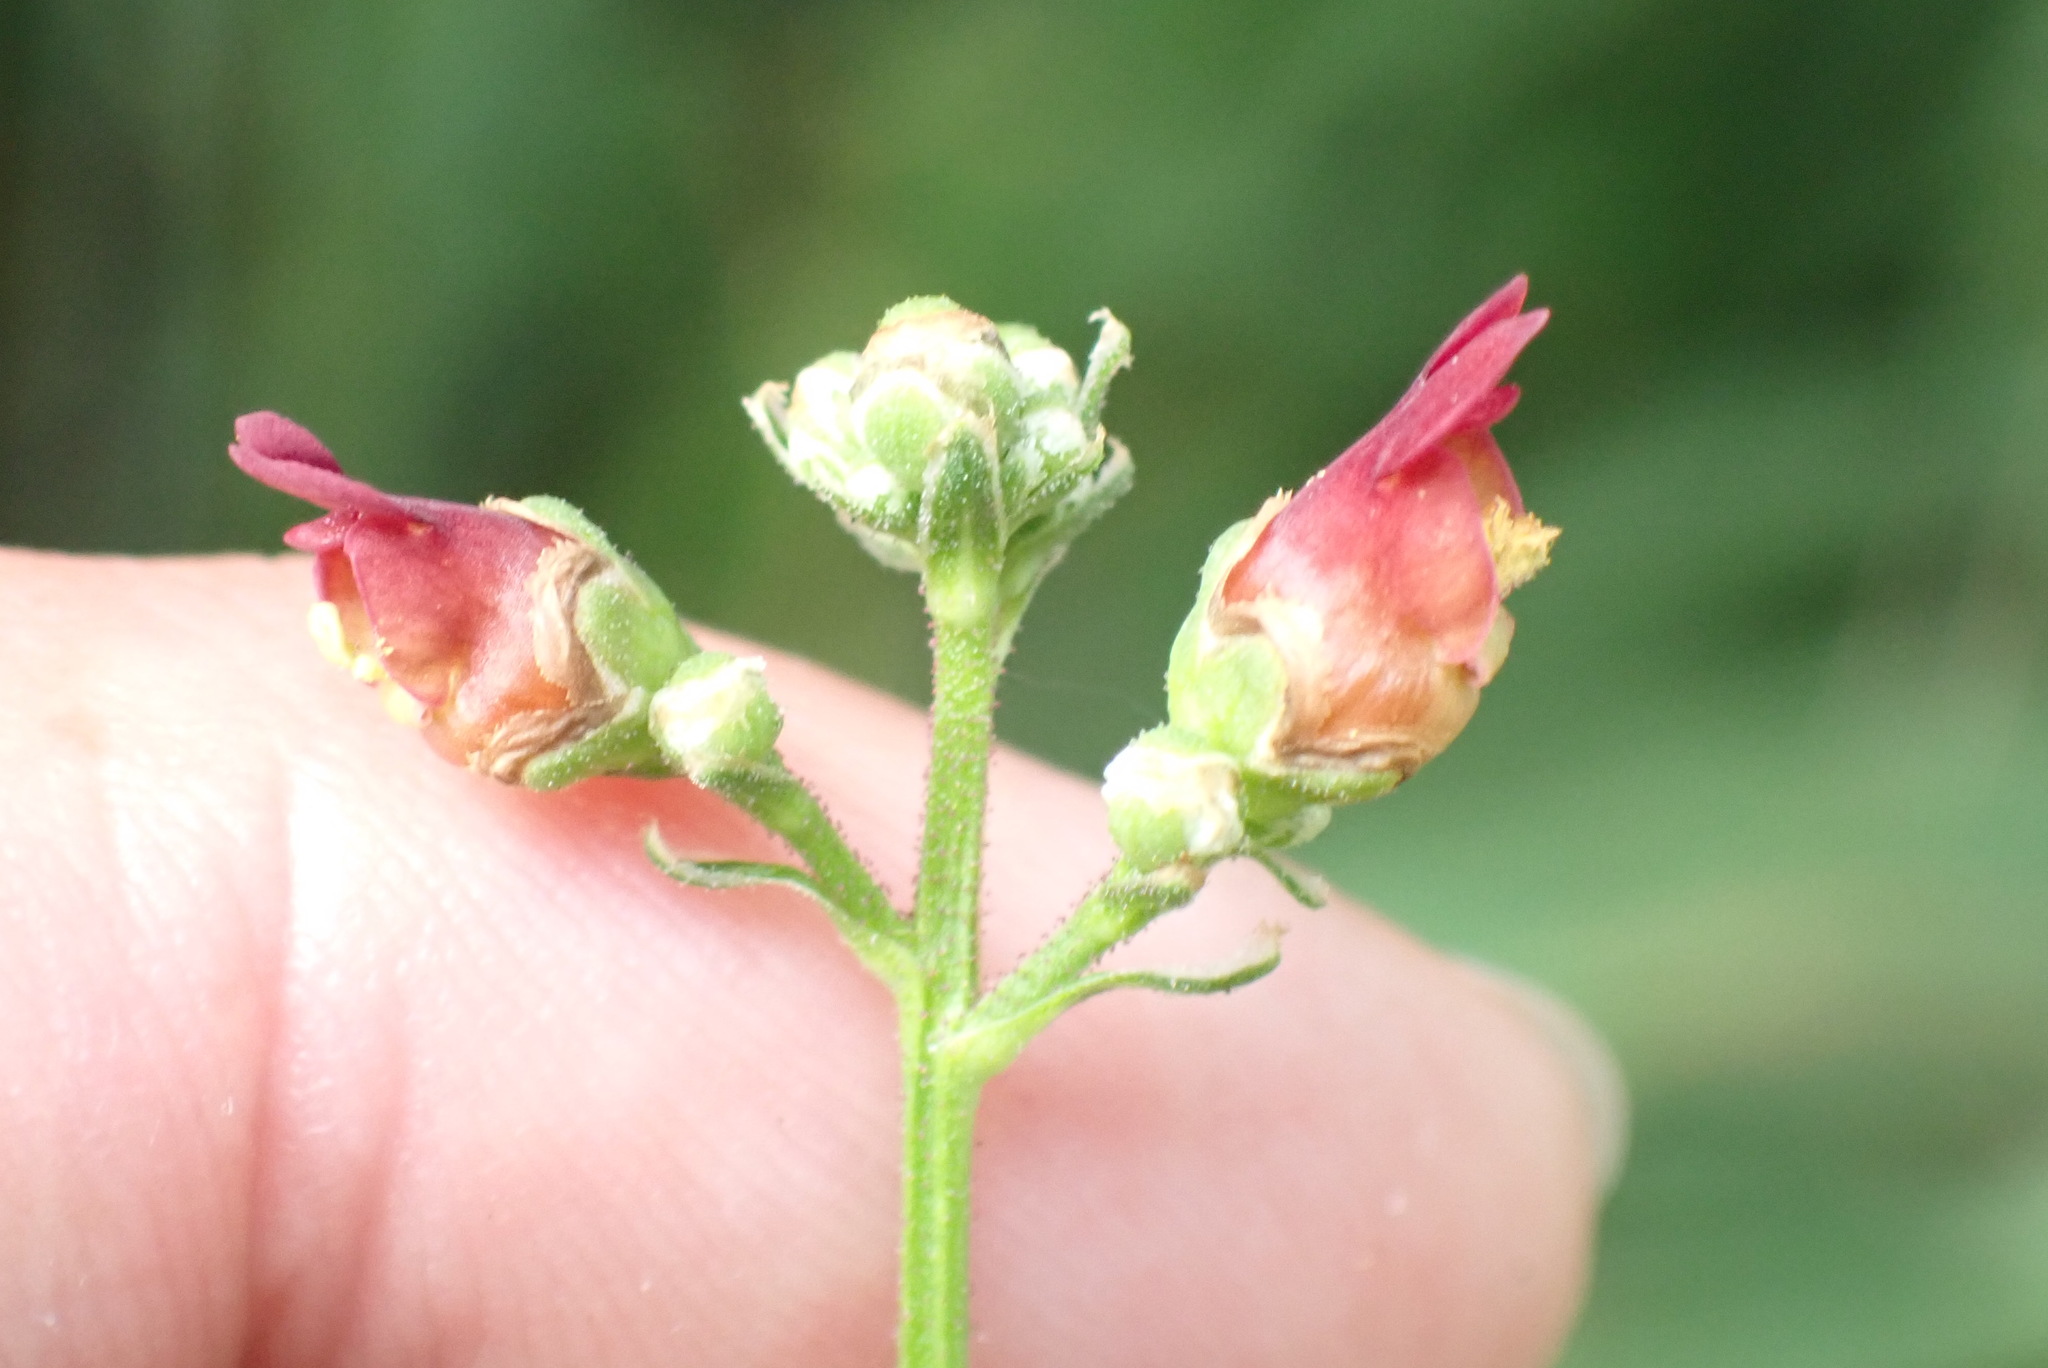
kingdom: Plantae
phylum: Tracheophyta
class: Magnoliopsida
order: Lamiales
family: Scrophulariaceae
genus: Scrophularia
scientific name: Scrophularia auriculata
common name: Water betony
